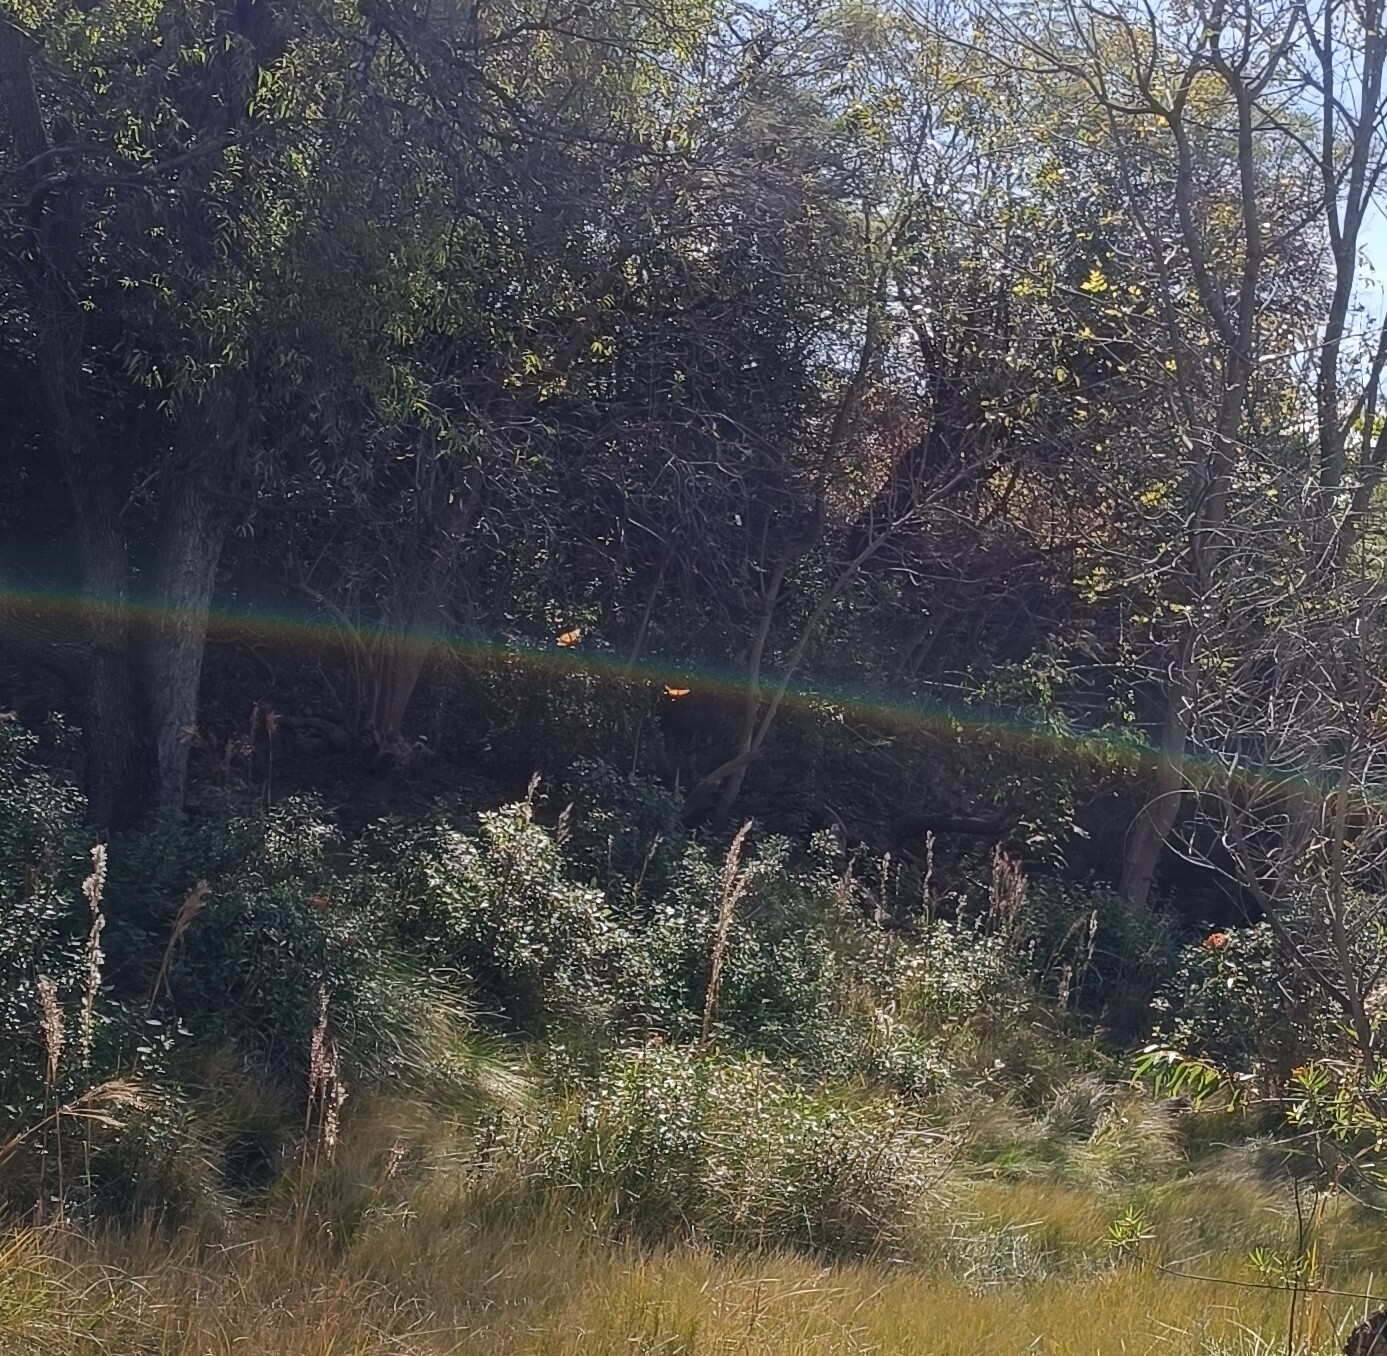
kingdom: Animalia
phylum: Arthropoda
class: Insecta
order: Lepidoptera
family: Nymphalidae
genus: Danaus
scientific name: Danaus plexippus
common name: Monarch
